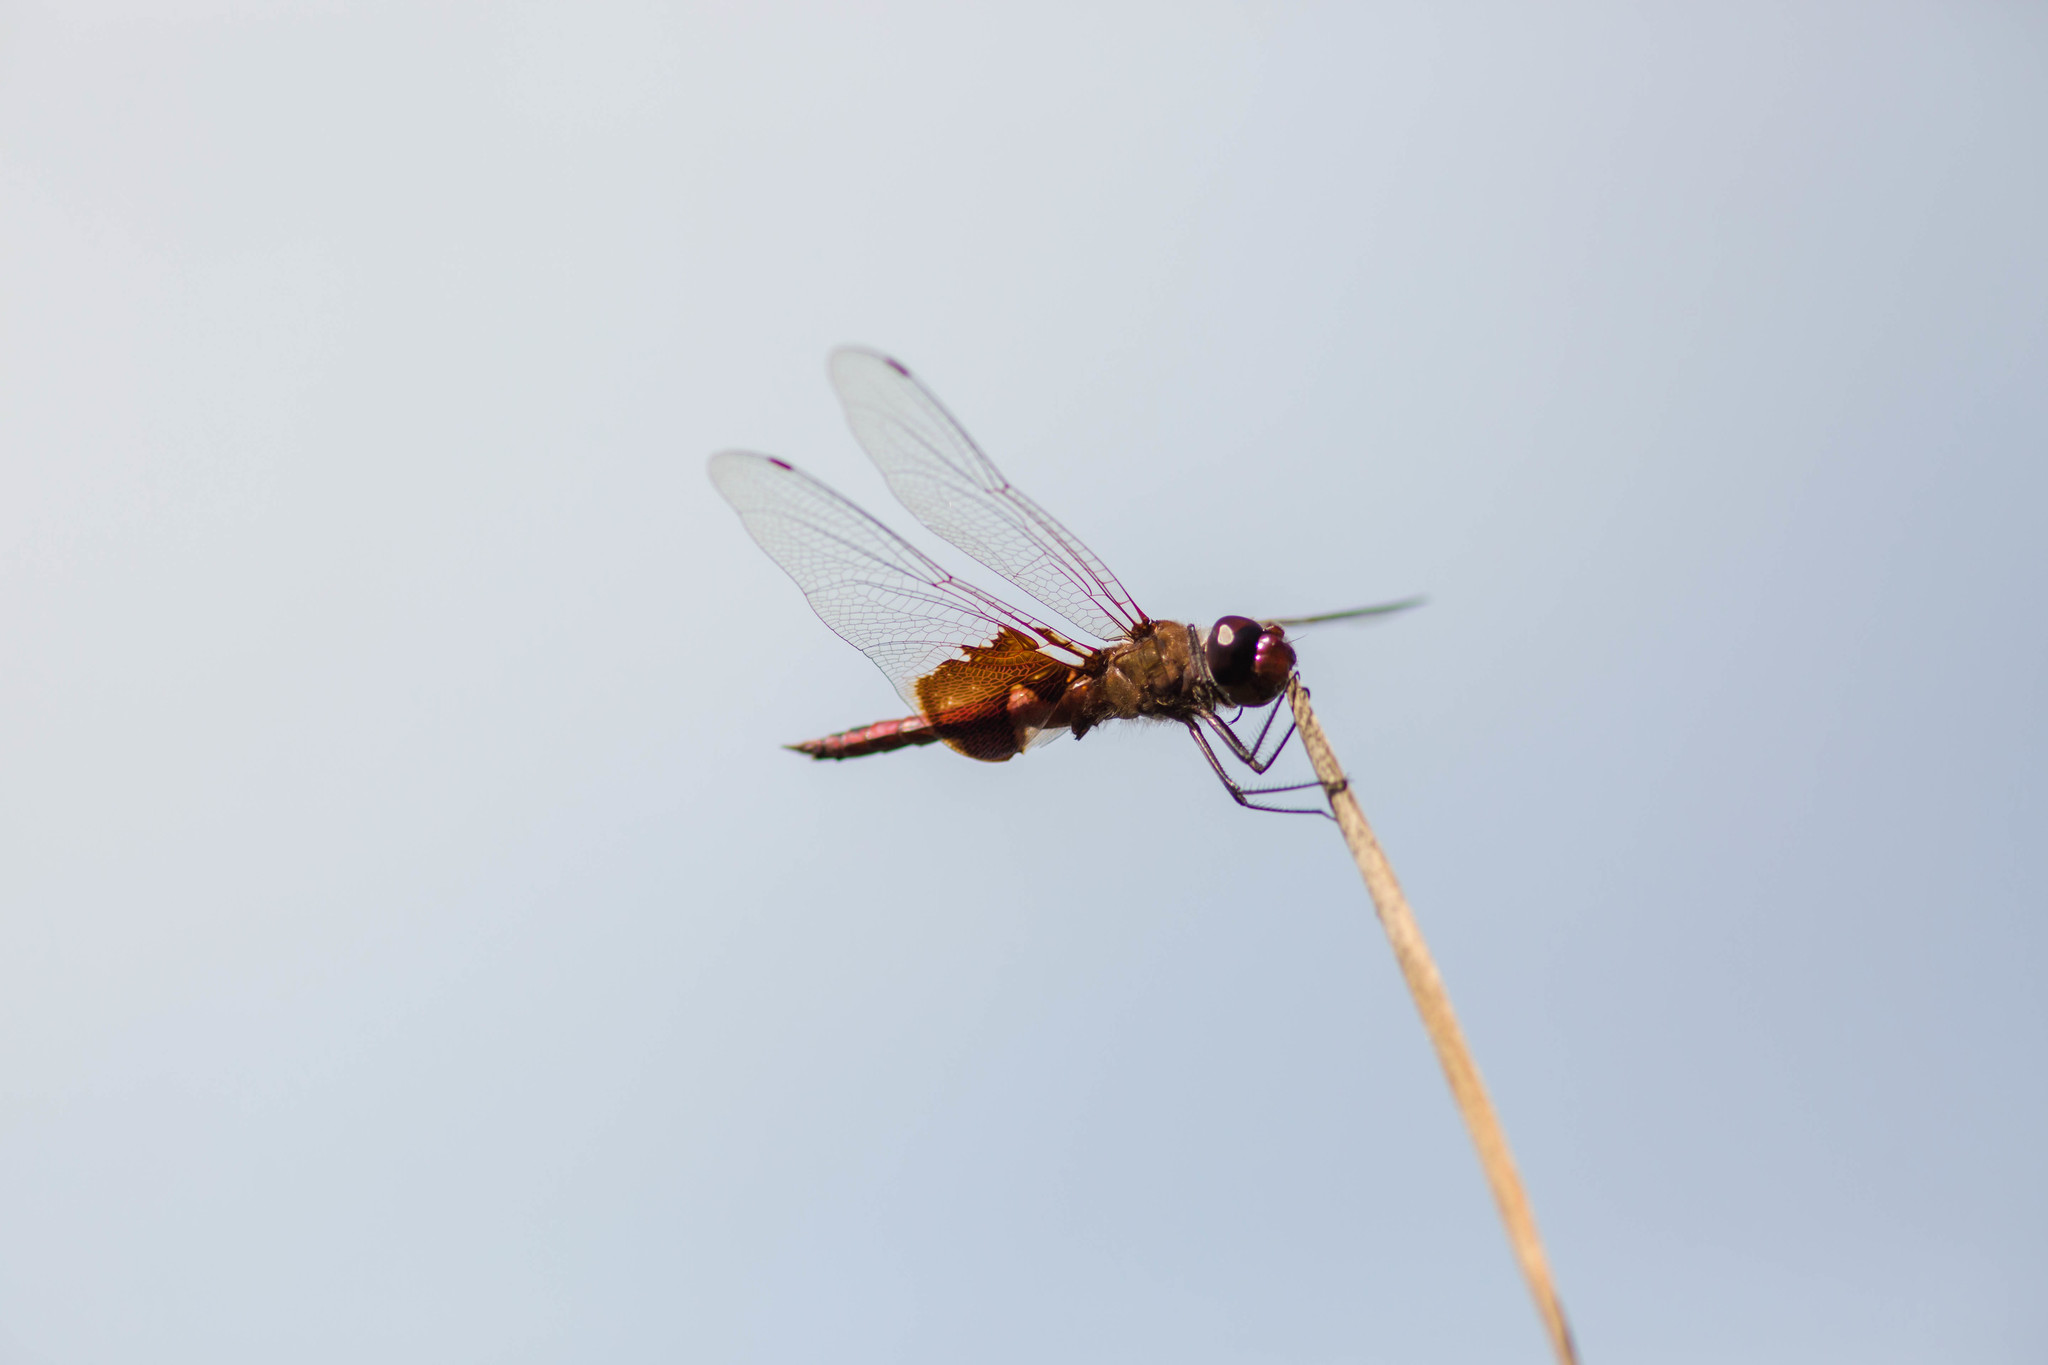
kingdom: Animalia
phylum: Arthropoda
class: Insecta
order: Odonata
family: Libellulidae
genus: Tramea
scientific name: Tramea onusta
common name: Red saddlebags
